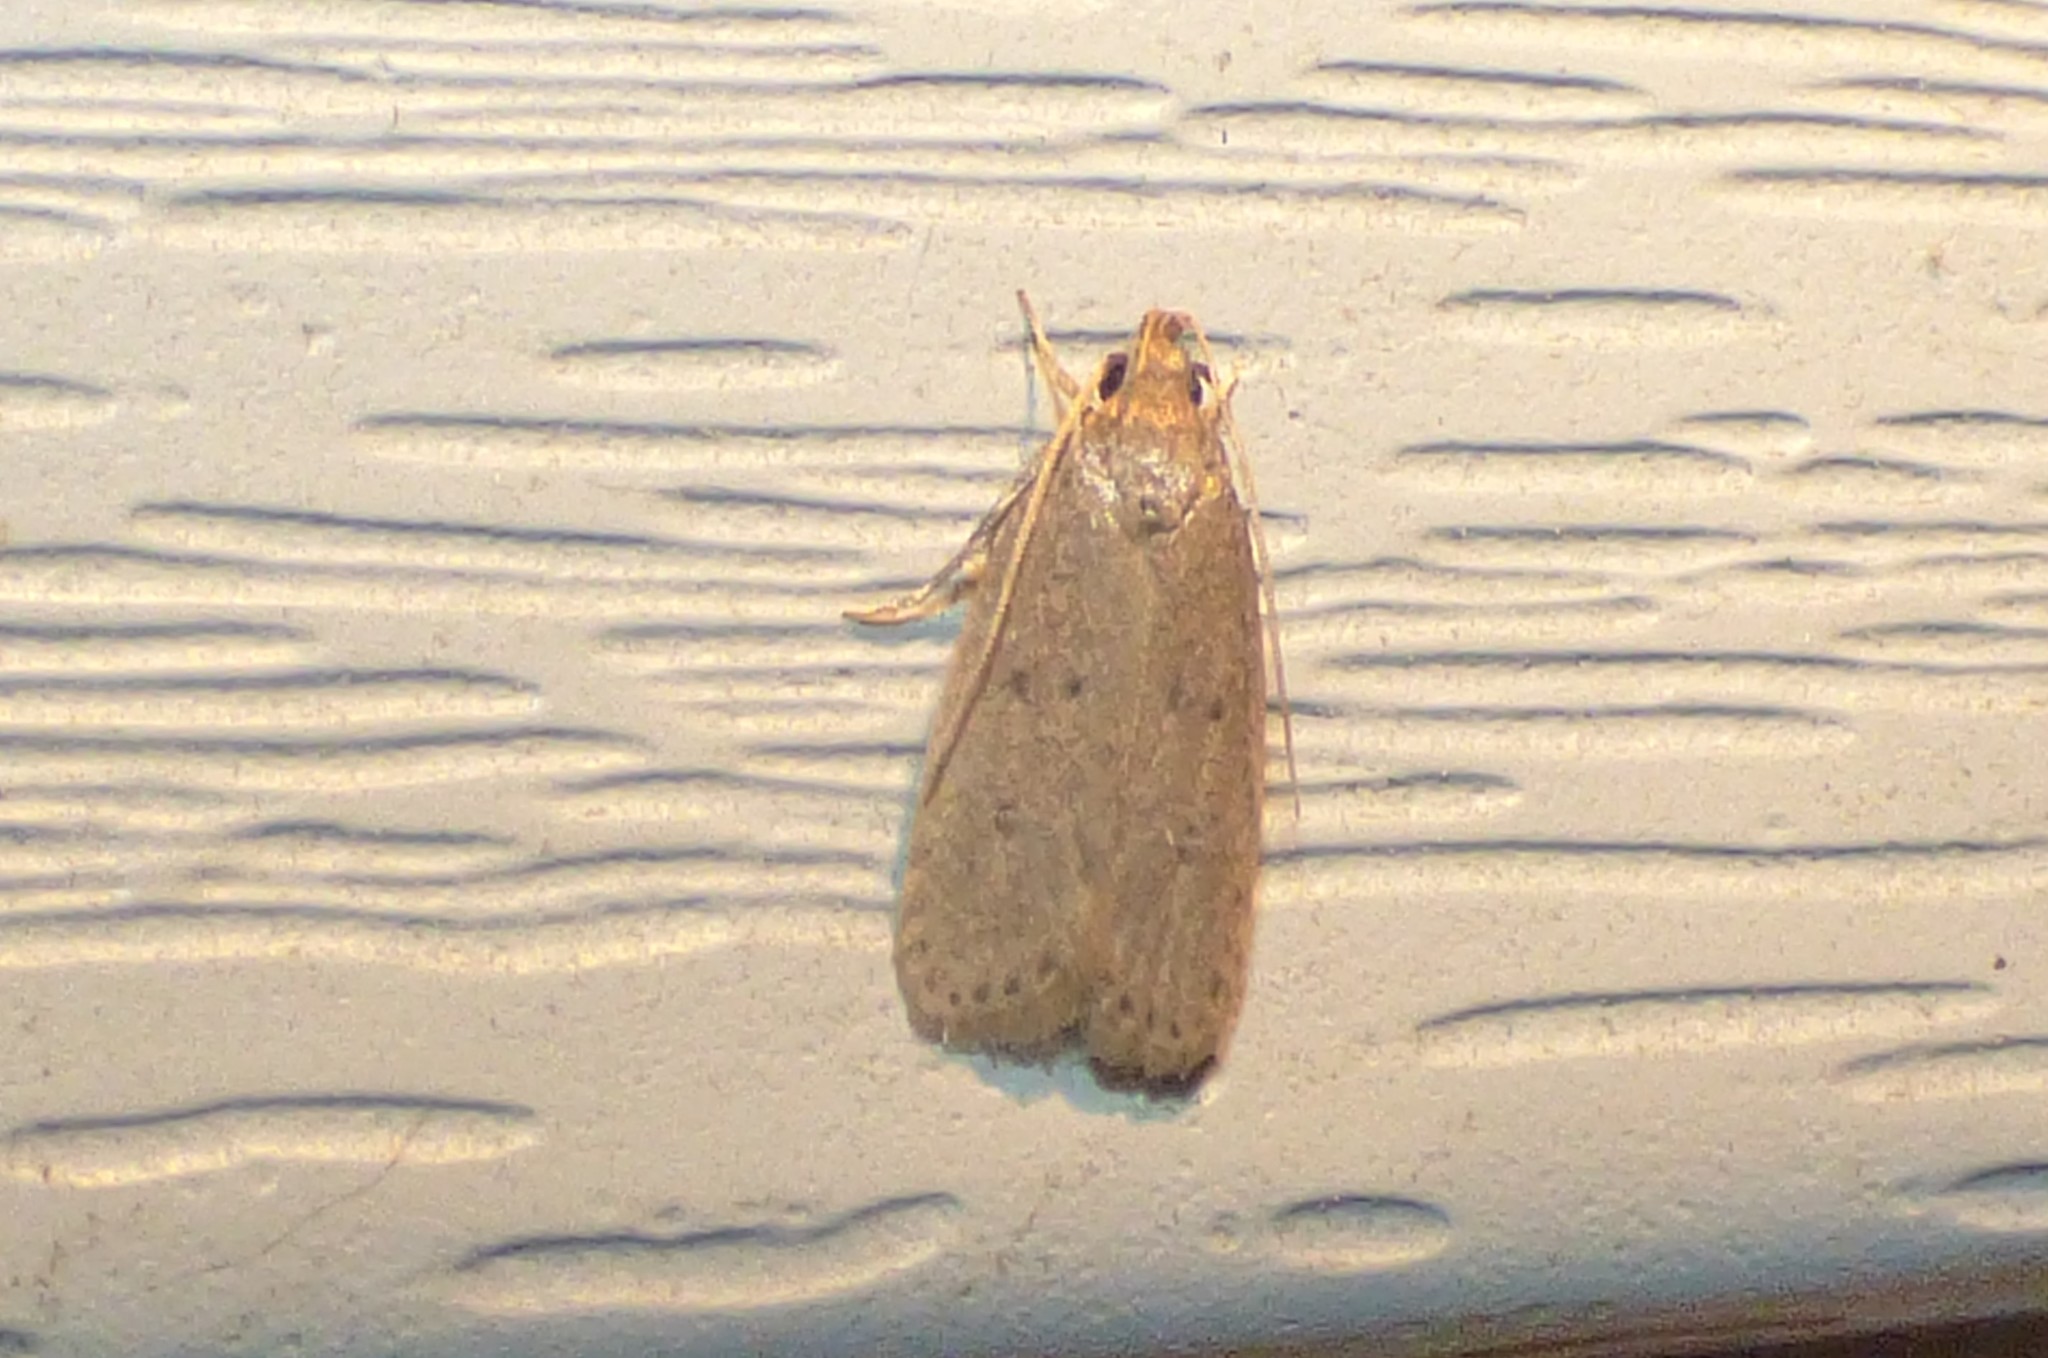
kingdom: Animalia
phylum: Arthropoda
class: Insecta
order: Lepidoptera
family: Autostichidae
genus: Autosticha
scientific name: Autosticha kyotensis
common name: Kyoto moth
